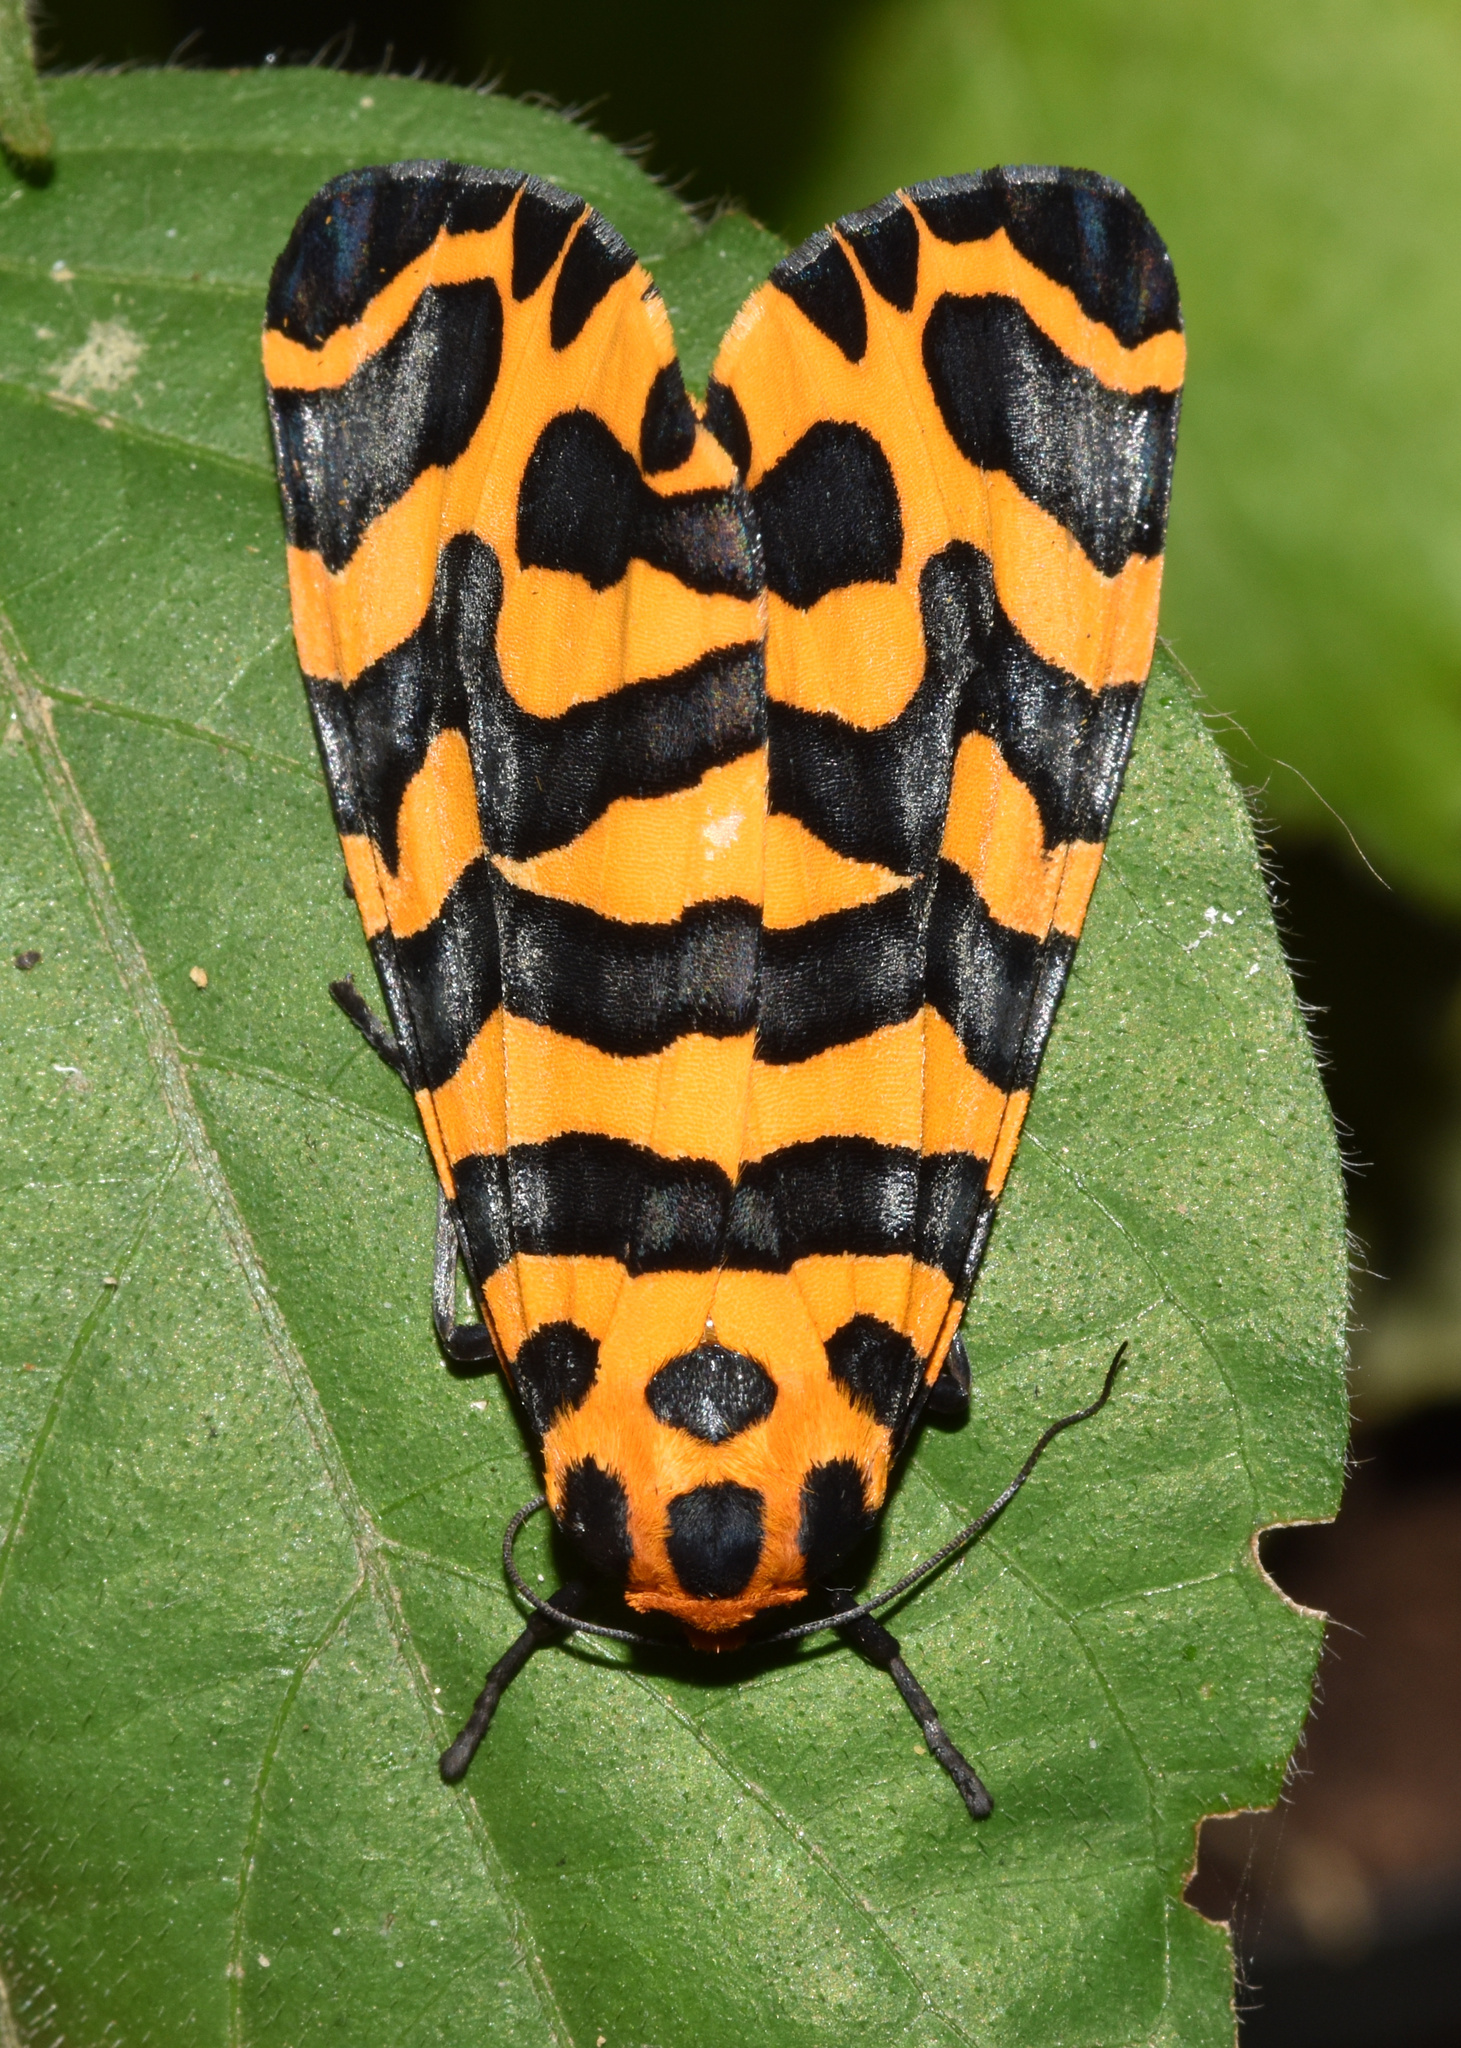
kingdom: Animalia
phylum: Arthropoda
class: Insecta
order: Lepidoptera
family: Erebidae
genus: Amphicallia
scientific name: Amphicallia bellatrix
